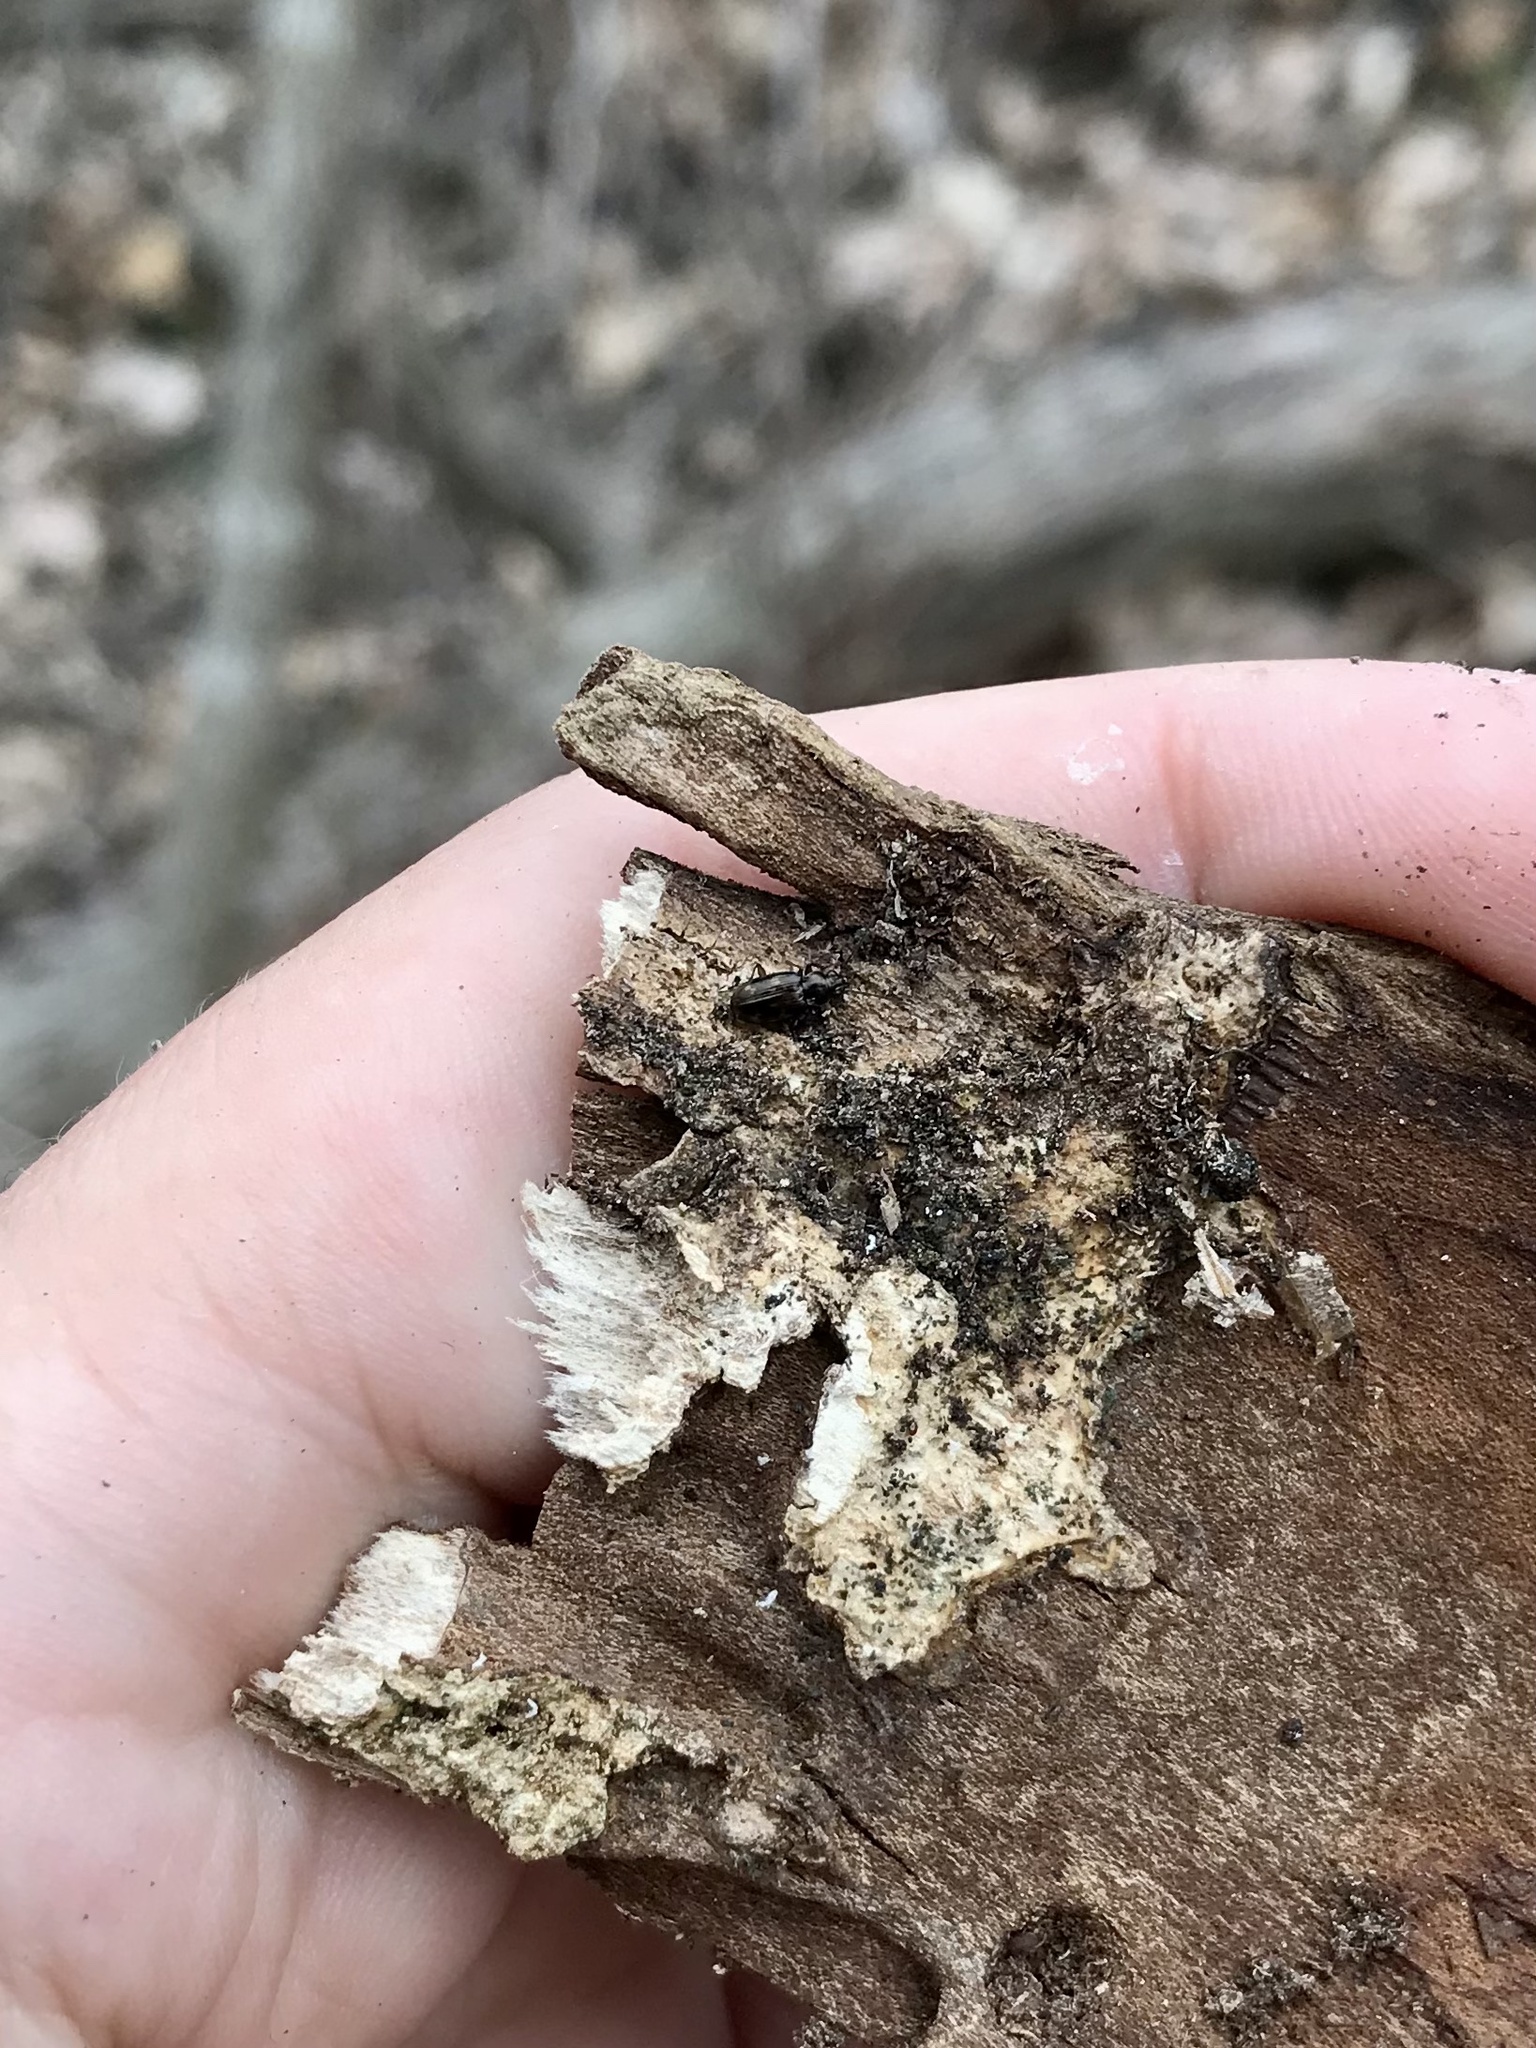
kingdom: Animalia
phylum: Arthropoda
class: Insecta
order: Coleoptera
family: Carabidae
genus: Bembidion
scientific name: Bembidion patruele
